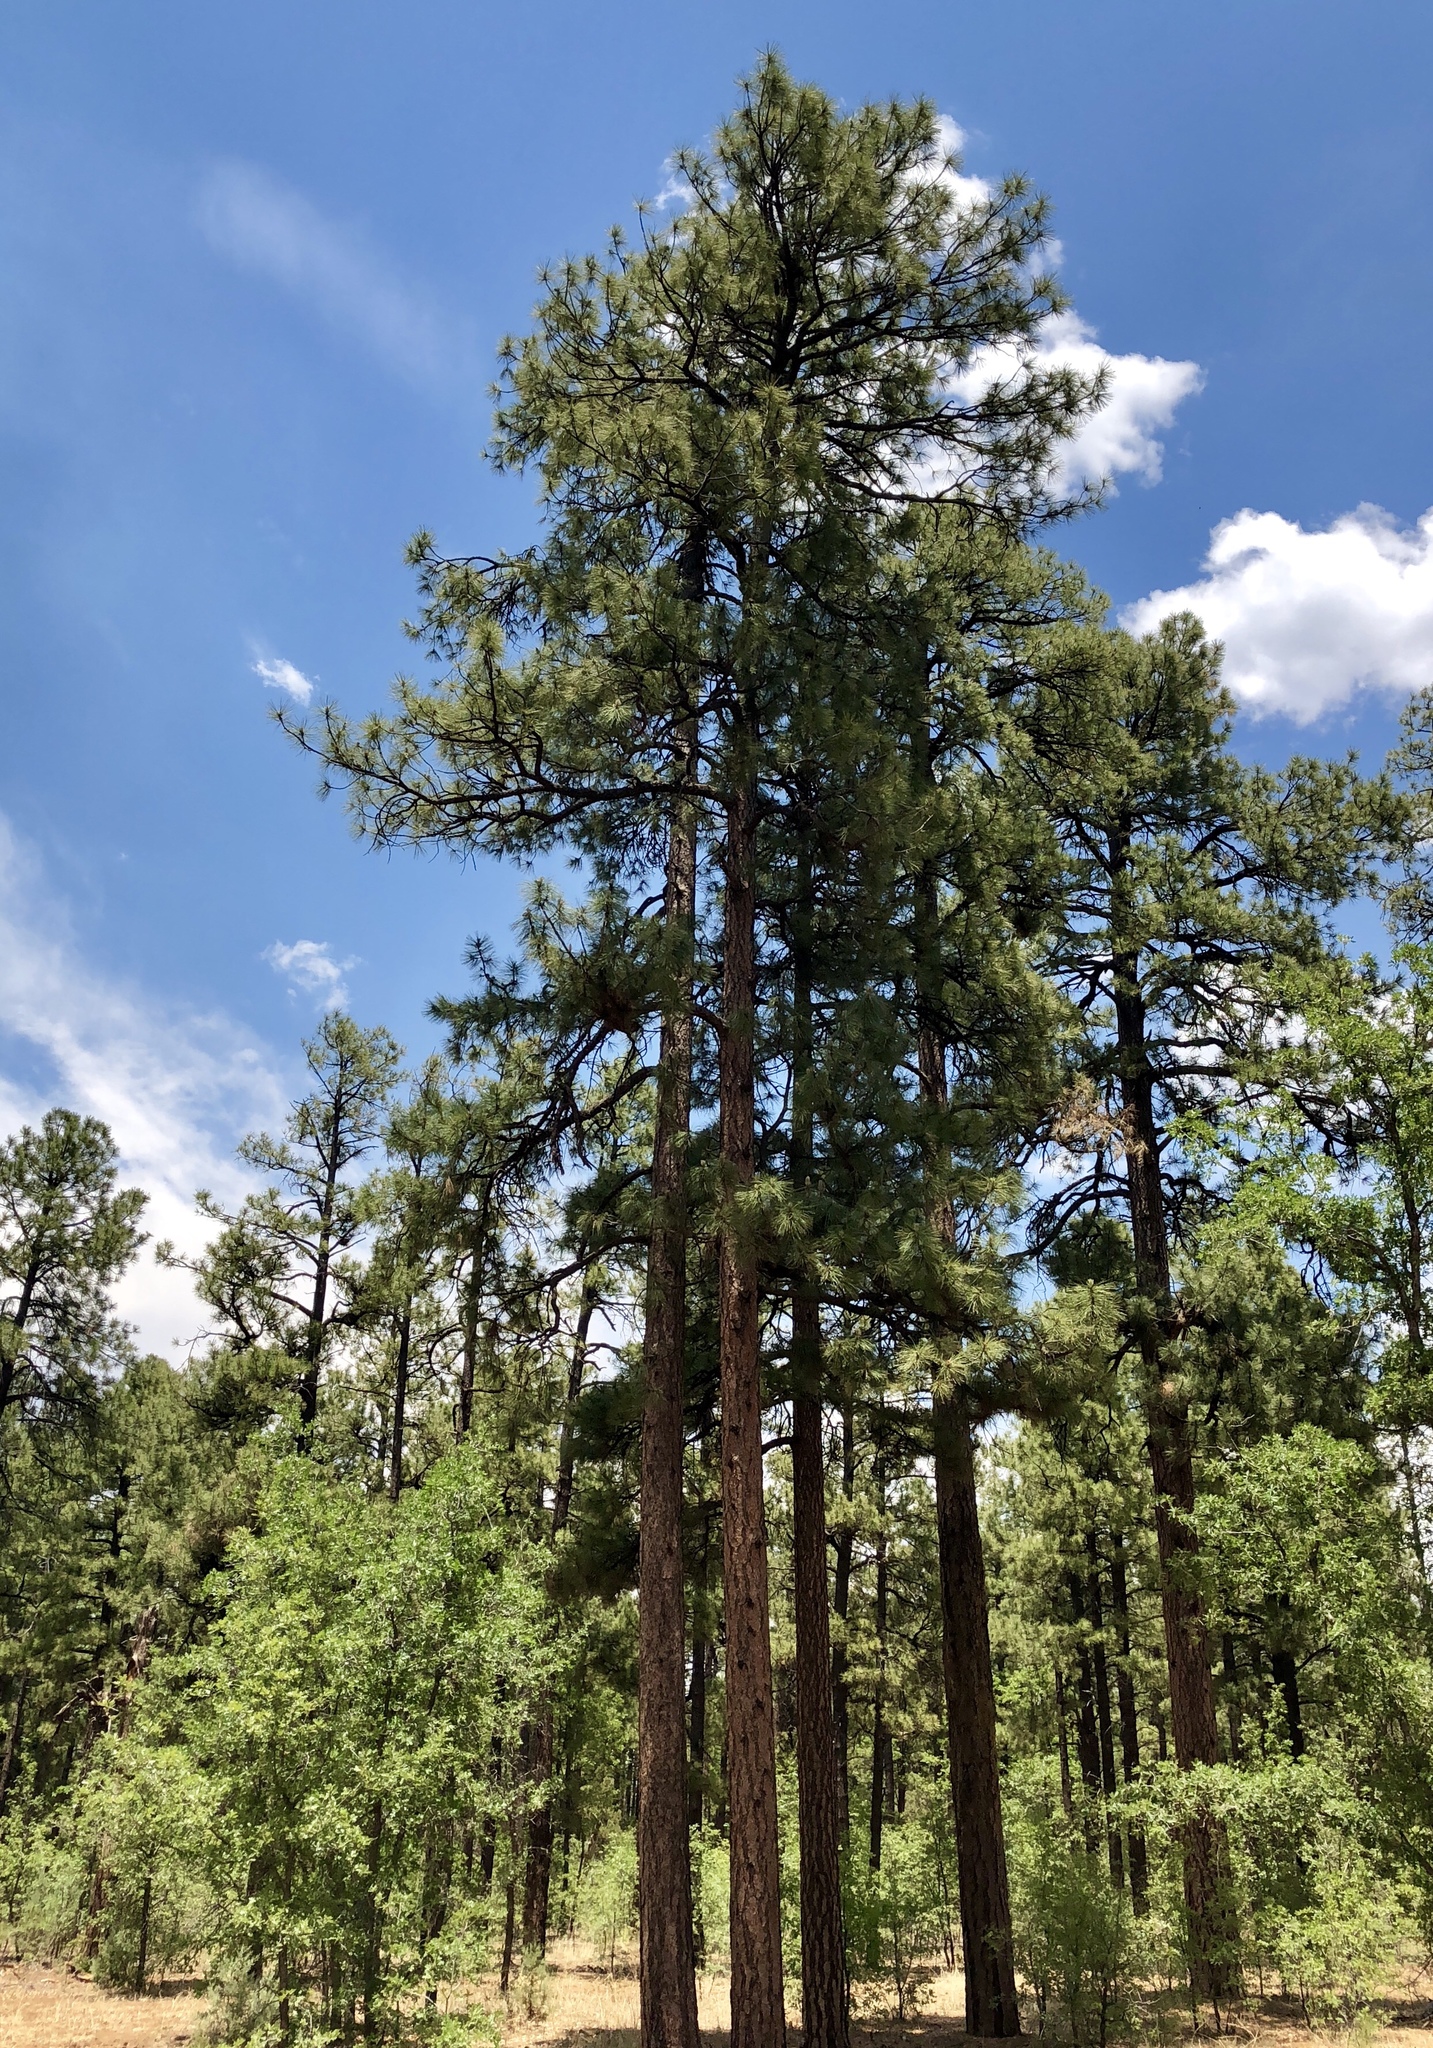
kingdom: Plantae
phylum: Tracheophyta
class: Pinopsida
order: Pinales
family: Pinaceae
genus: Pinus
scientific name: Pinus ponderosa
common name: Western yellow-pine
